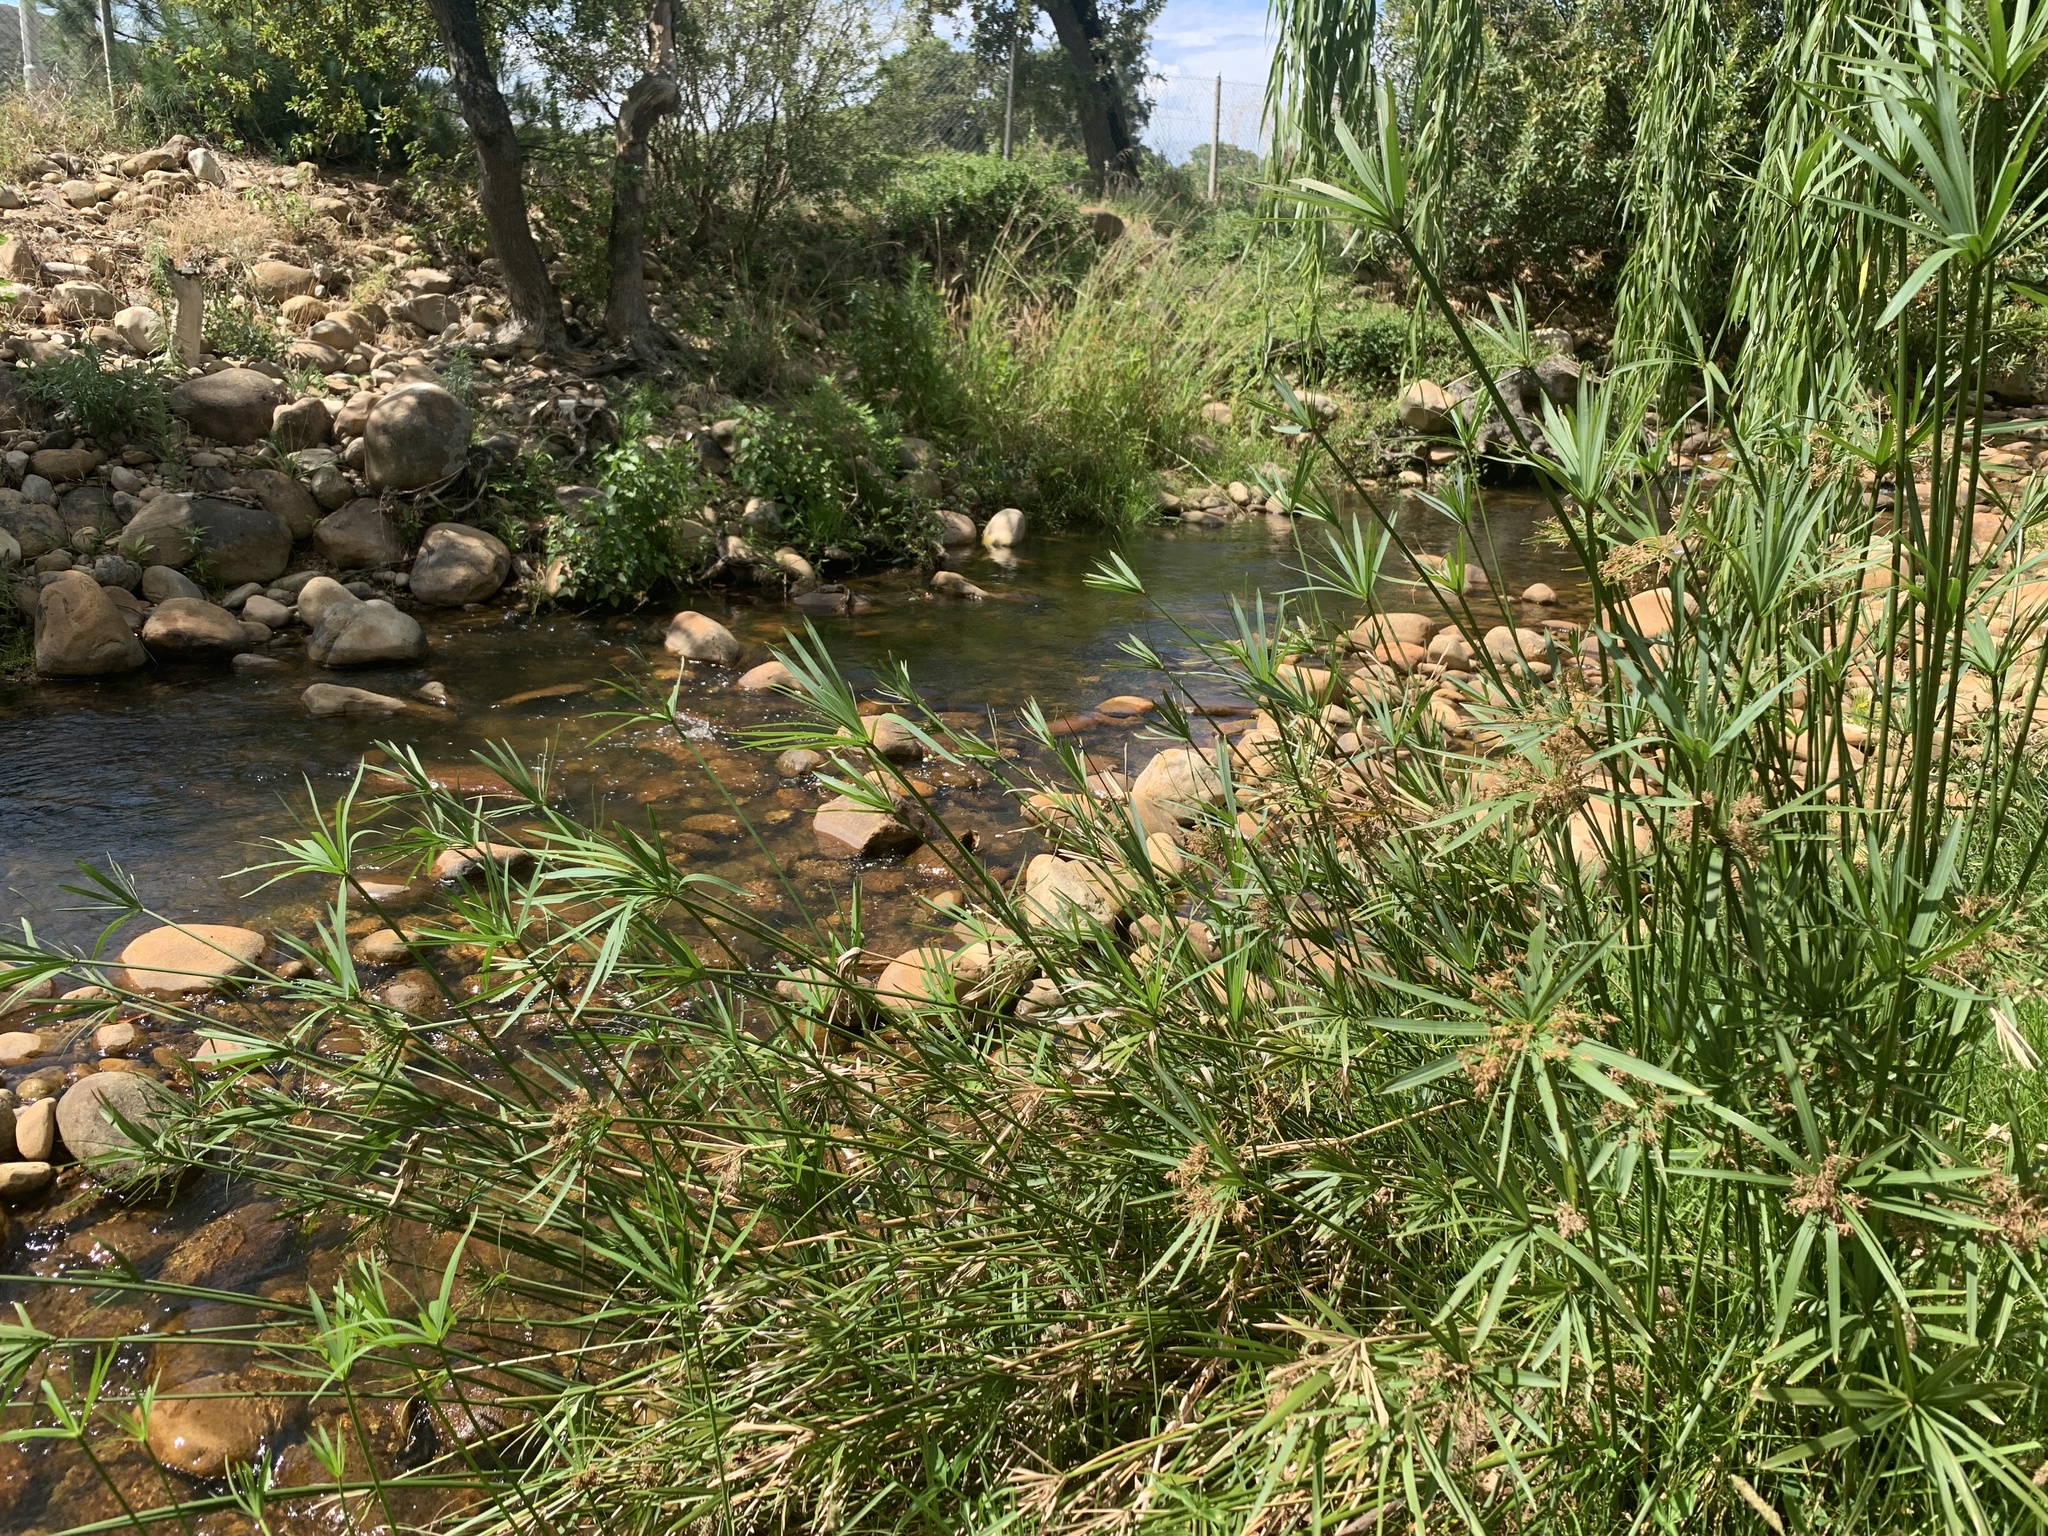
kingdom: Plantae
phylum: Tracheophyta
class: Liliopsida
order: Poales
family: Cyperaceae
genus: Cyperus
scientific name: Cyperus textilis
